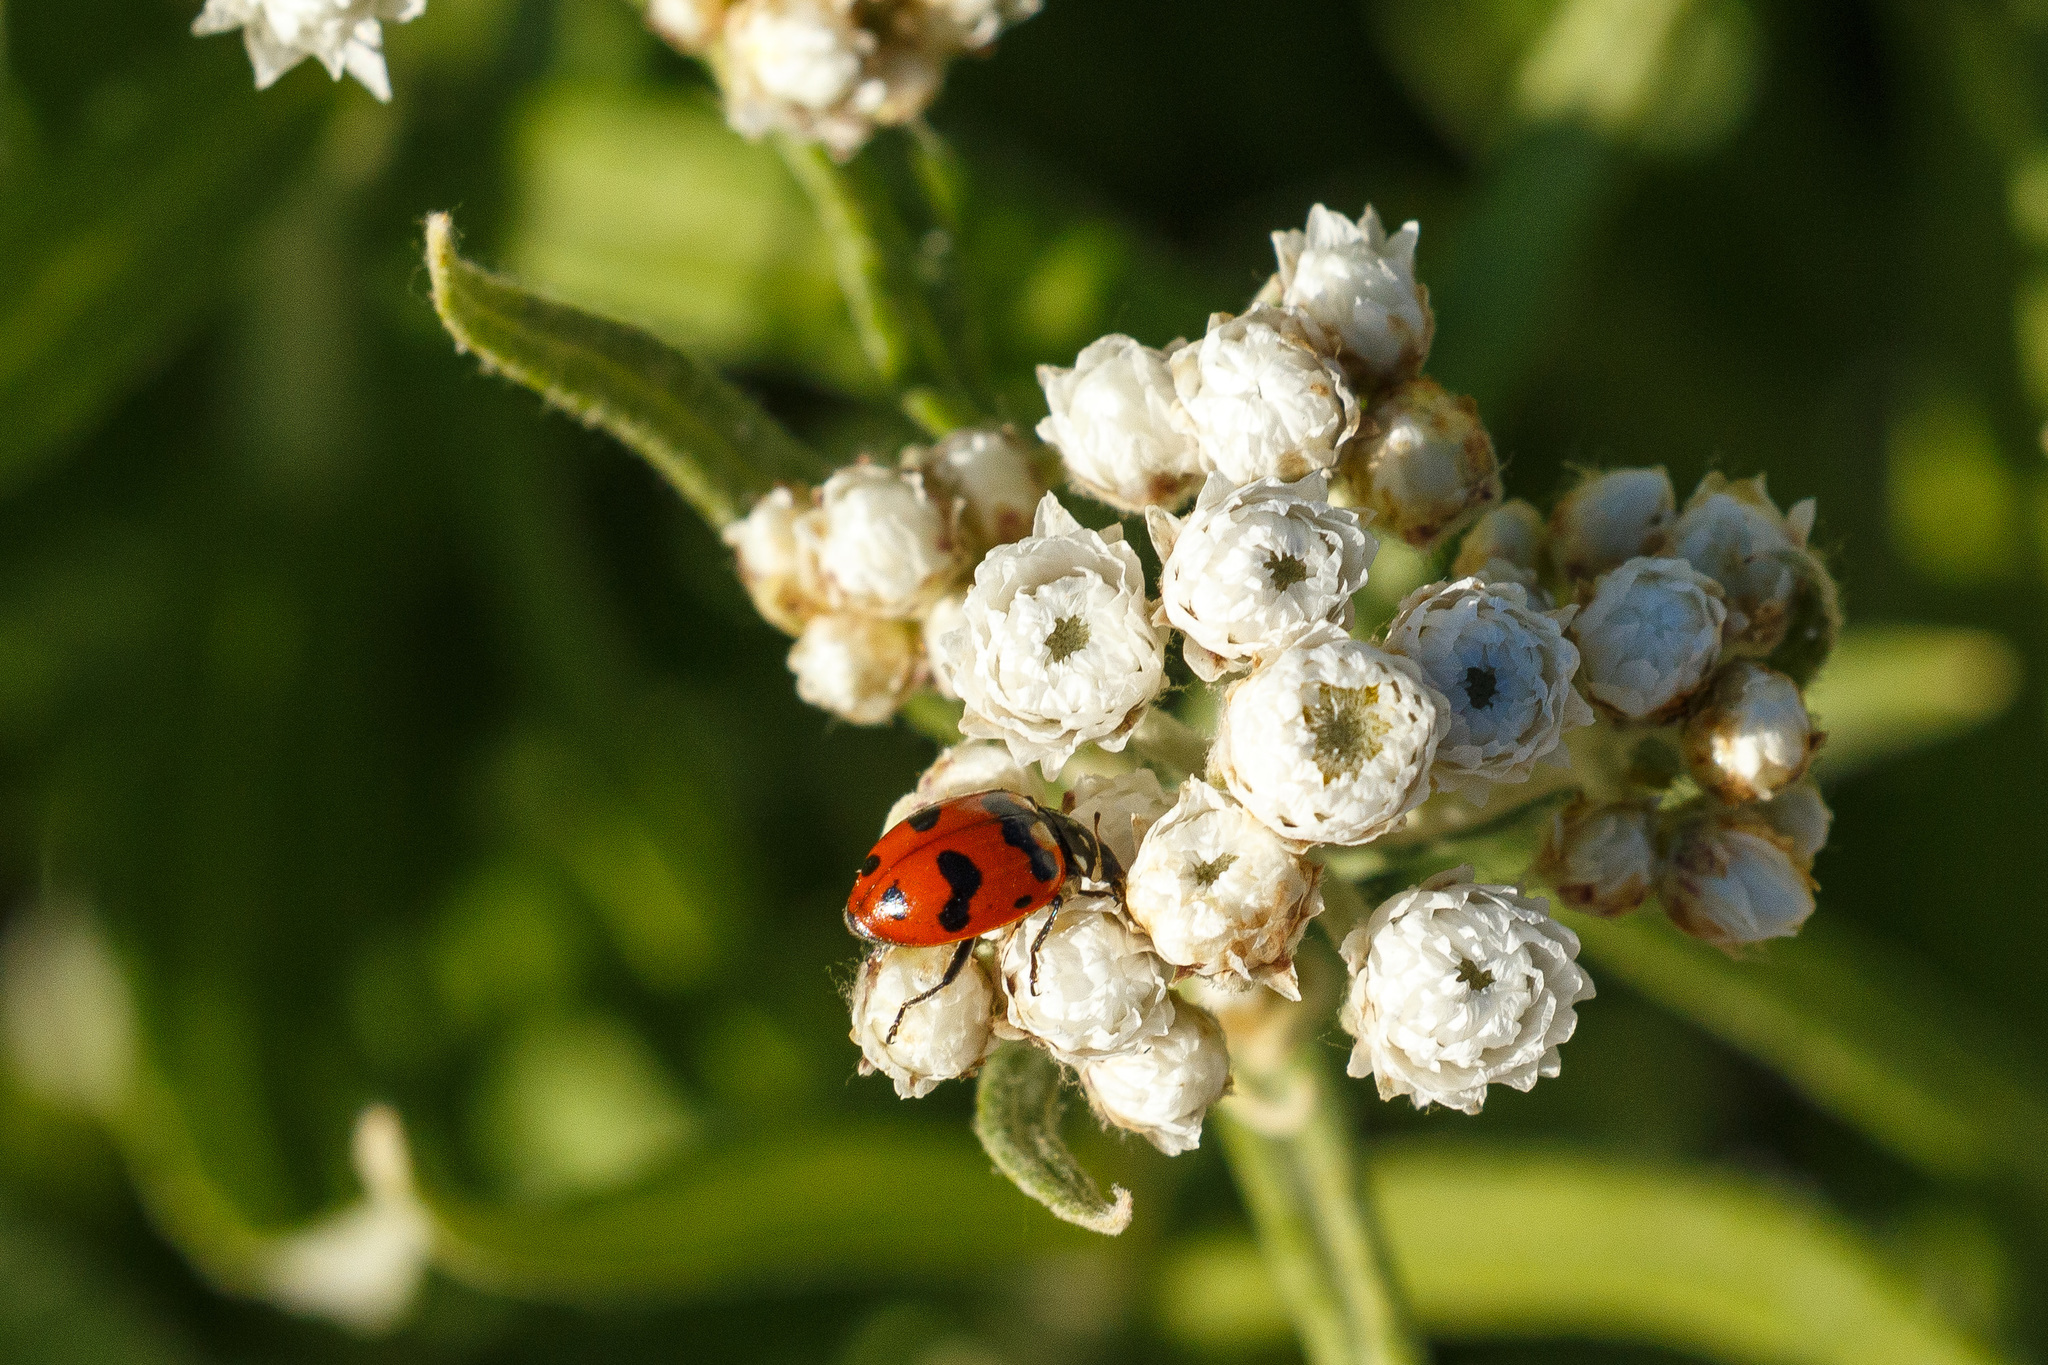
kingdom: Animalia
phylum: Arthropoda
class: Insecta
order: Coleoptera
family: Coccinellidae
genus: Hippodamia
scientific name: Hippodamia caseyi
